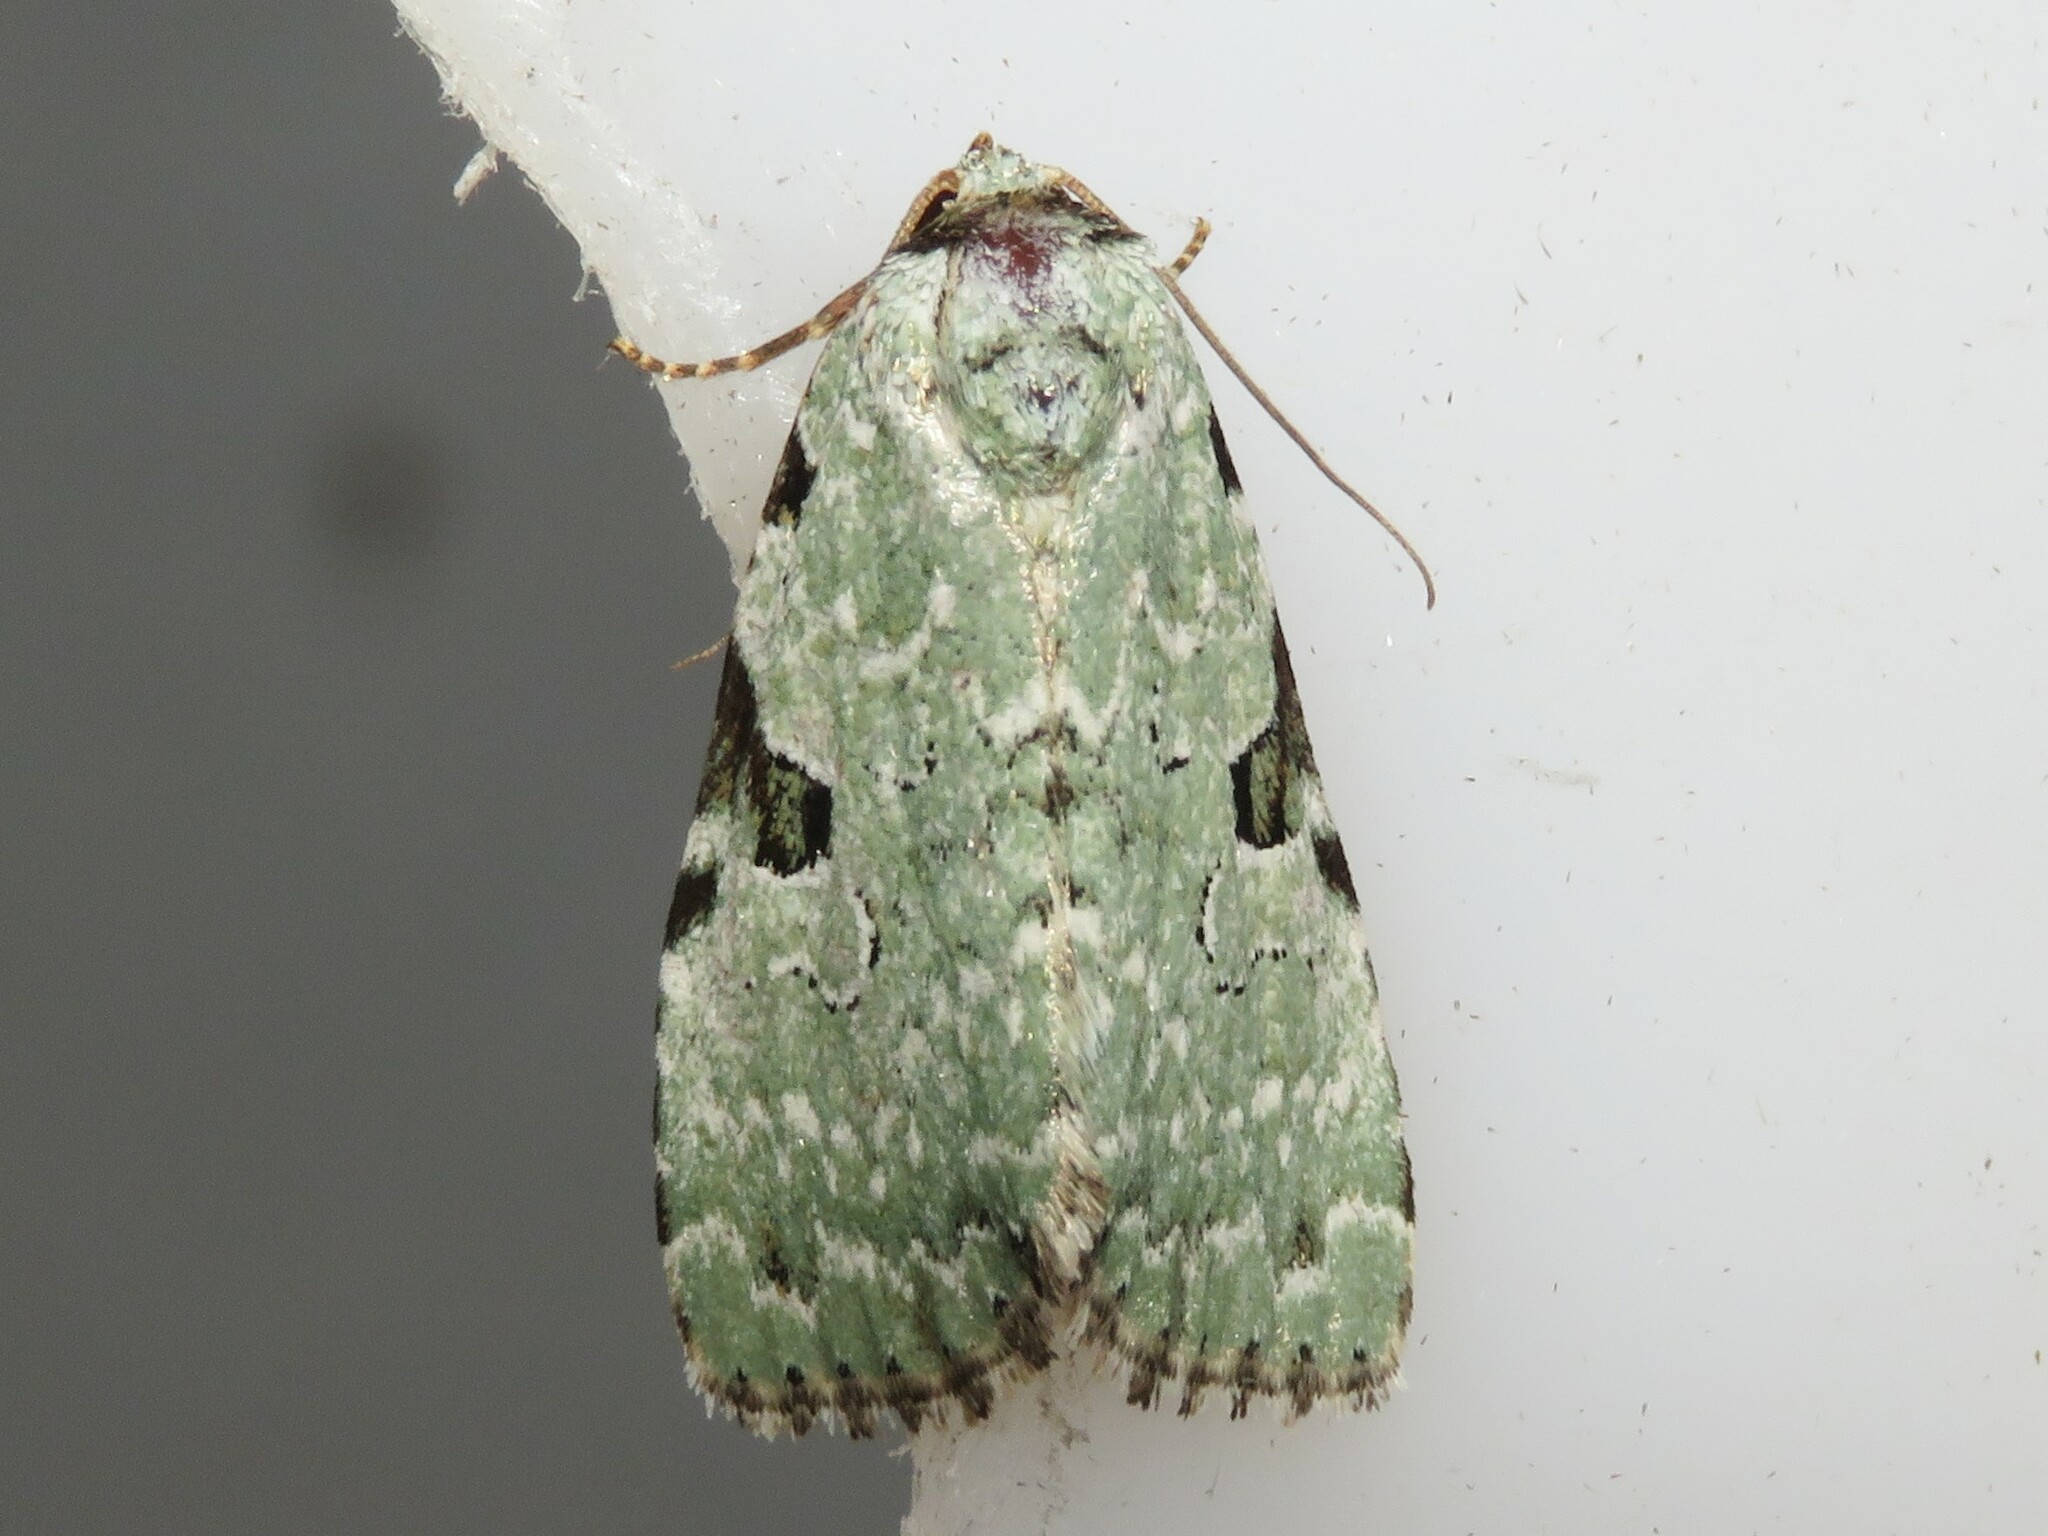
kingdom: Animalia
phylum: Arthropoda
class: Insecta
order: Lepidoptera
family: Noctuidae
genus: Leuconycta
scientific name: Leuconycta diphteroides
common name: Green leuconycta moth
